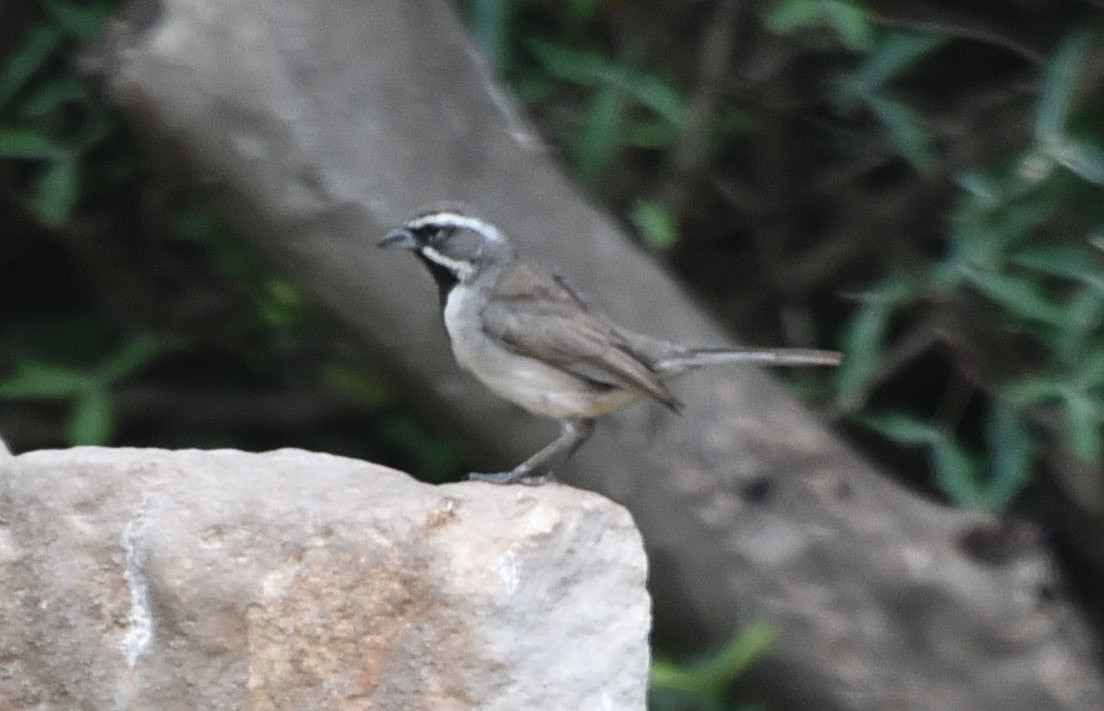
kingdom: Animalia
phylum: Chordata
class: Aves
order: Passeriformes
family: Passerellidae
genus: Amphispiza
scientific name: Amphispiza bilineata
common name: Black-throated sparrow
